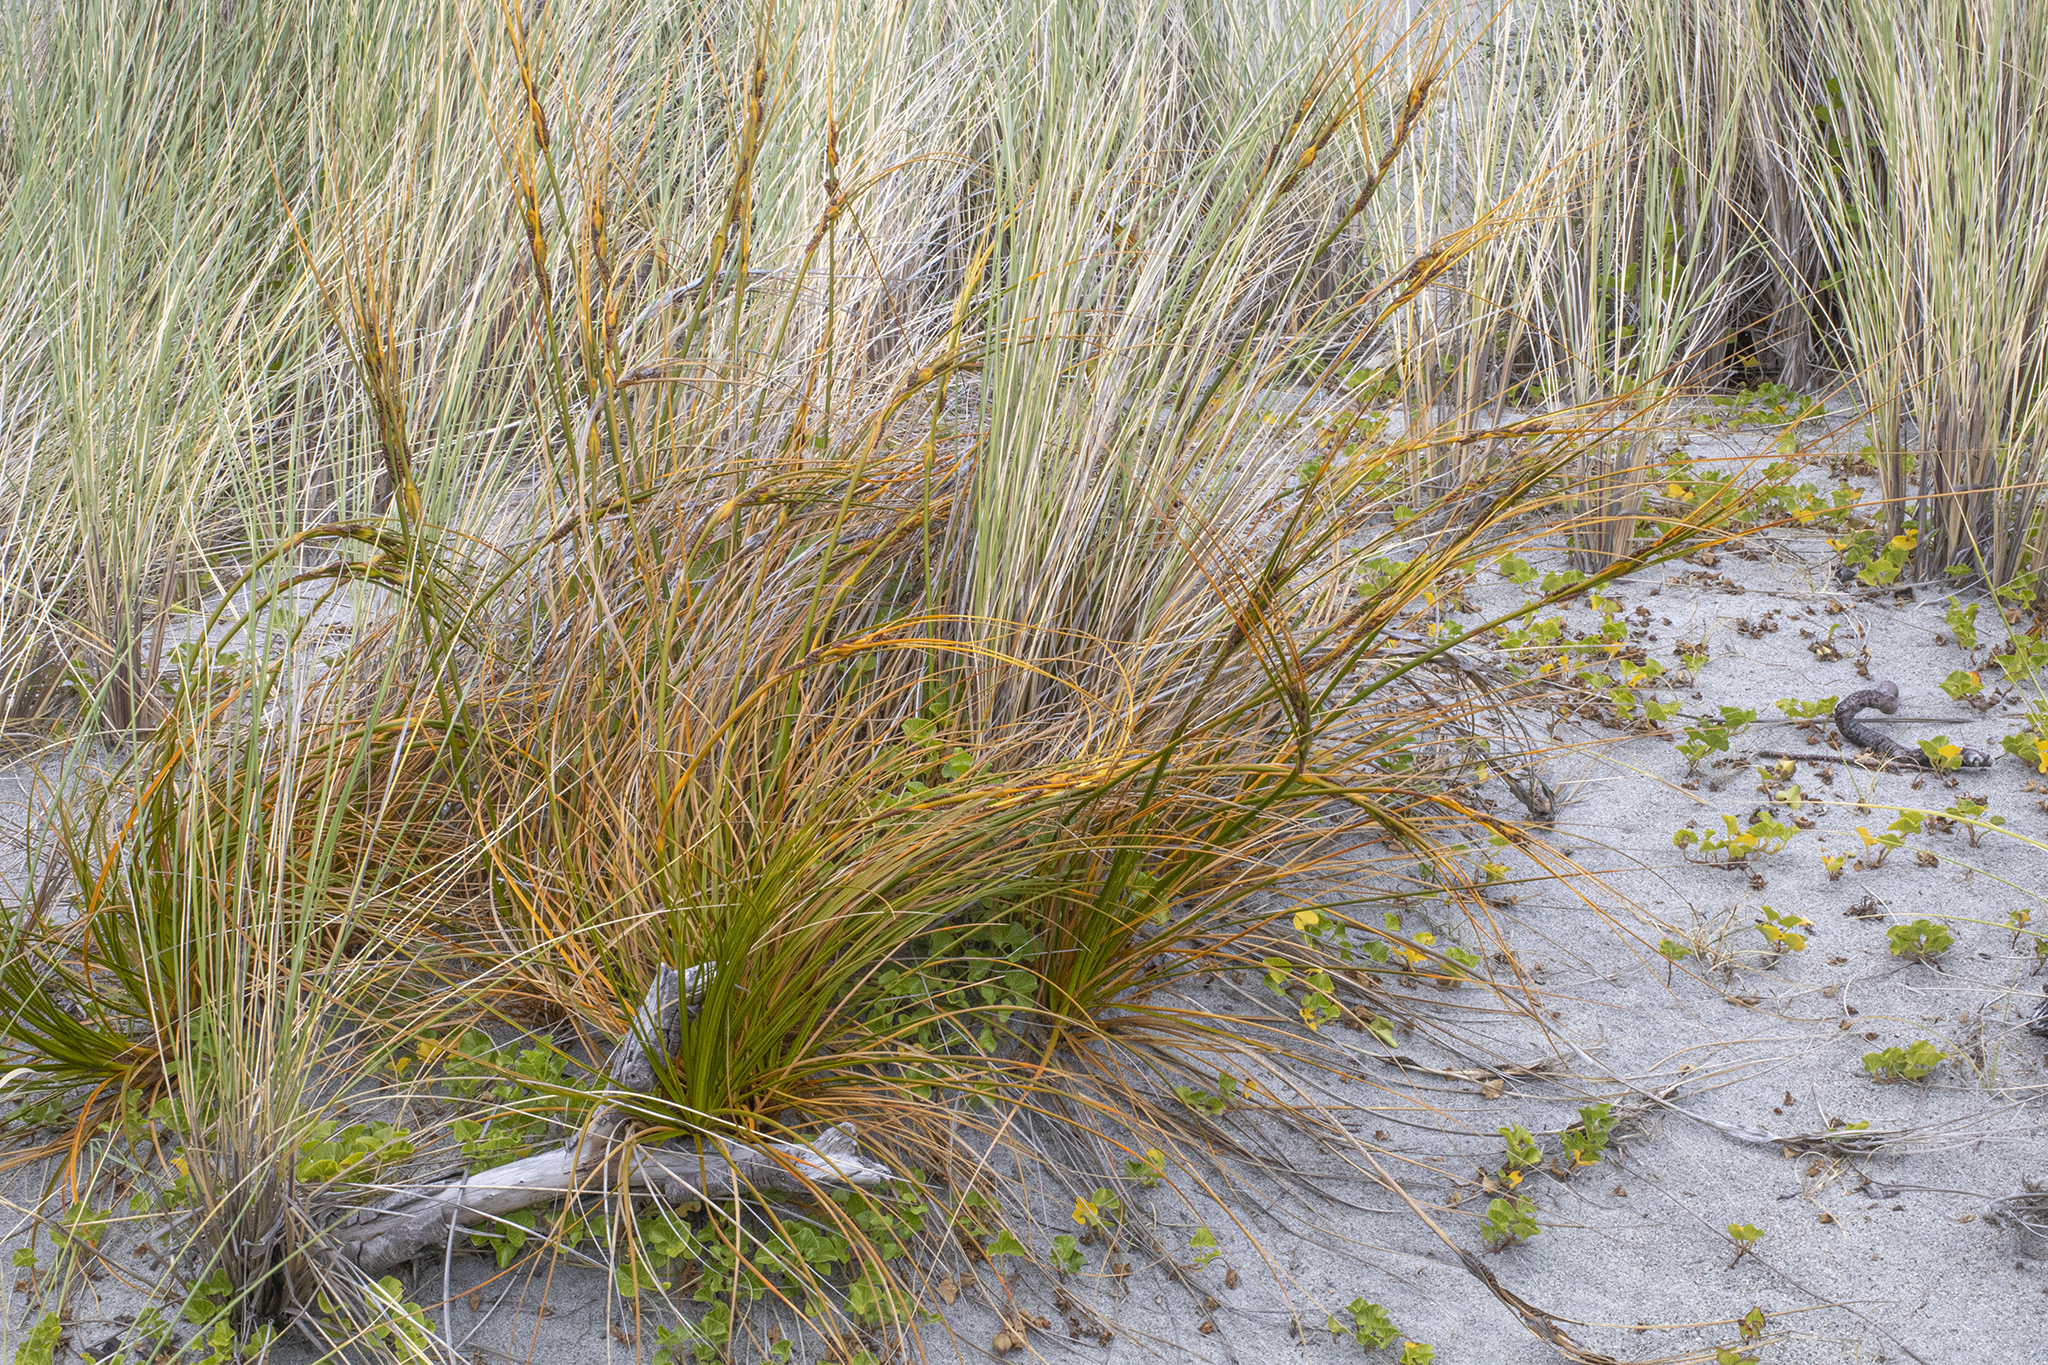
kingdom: Plantae
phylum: Tracheophyta
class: Liliopsida
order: Poales
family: Cyperaceae
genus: Ficinia
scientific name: Ficinia spiralis
